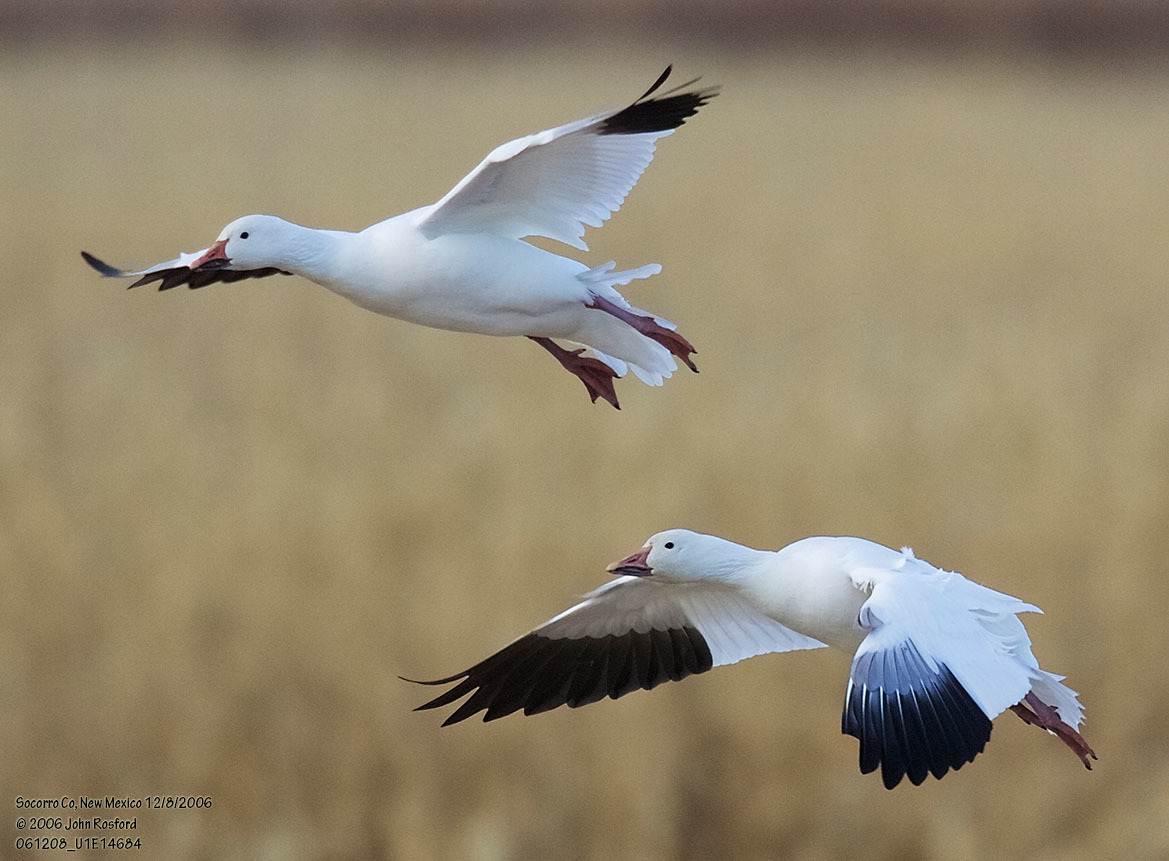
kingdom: Animalia
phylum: Chordata
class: Aves
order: Anseriformes
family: Anatidae
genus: Anser
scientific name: Anser caerulescens
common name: Snow goose
